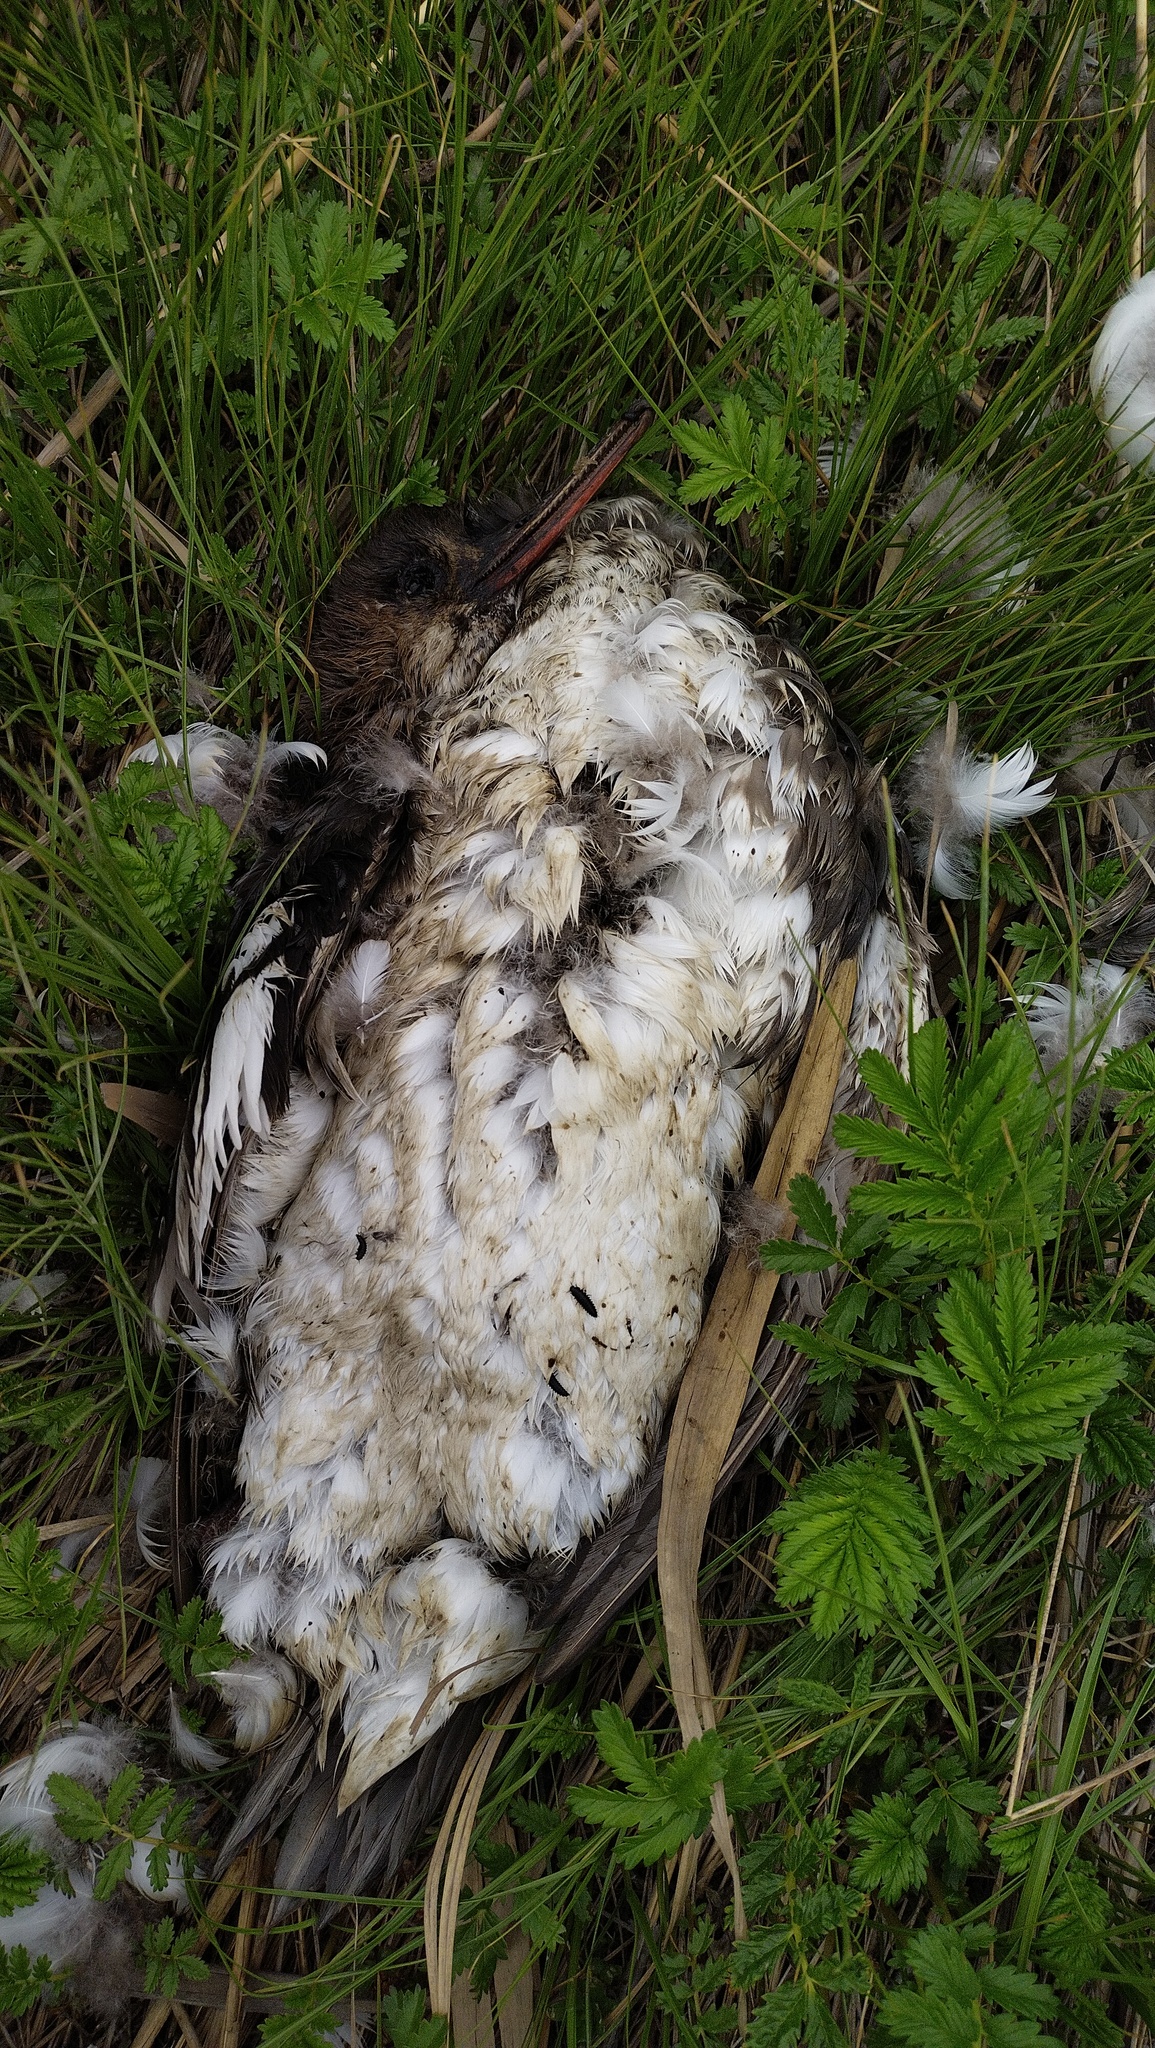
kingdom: Animalia
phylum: Chordata
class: Aves
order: Anseriformes
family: Anatidae
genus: Mergus
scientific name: Mergus serrator
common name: Red-breasted merganser
